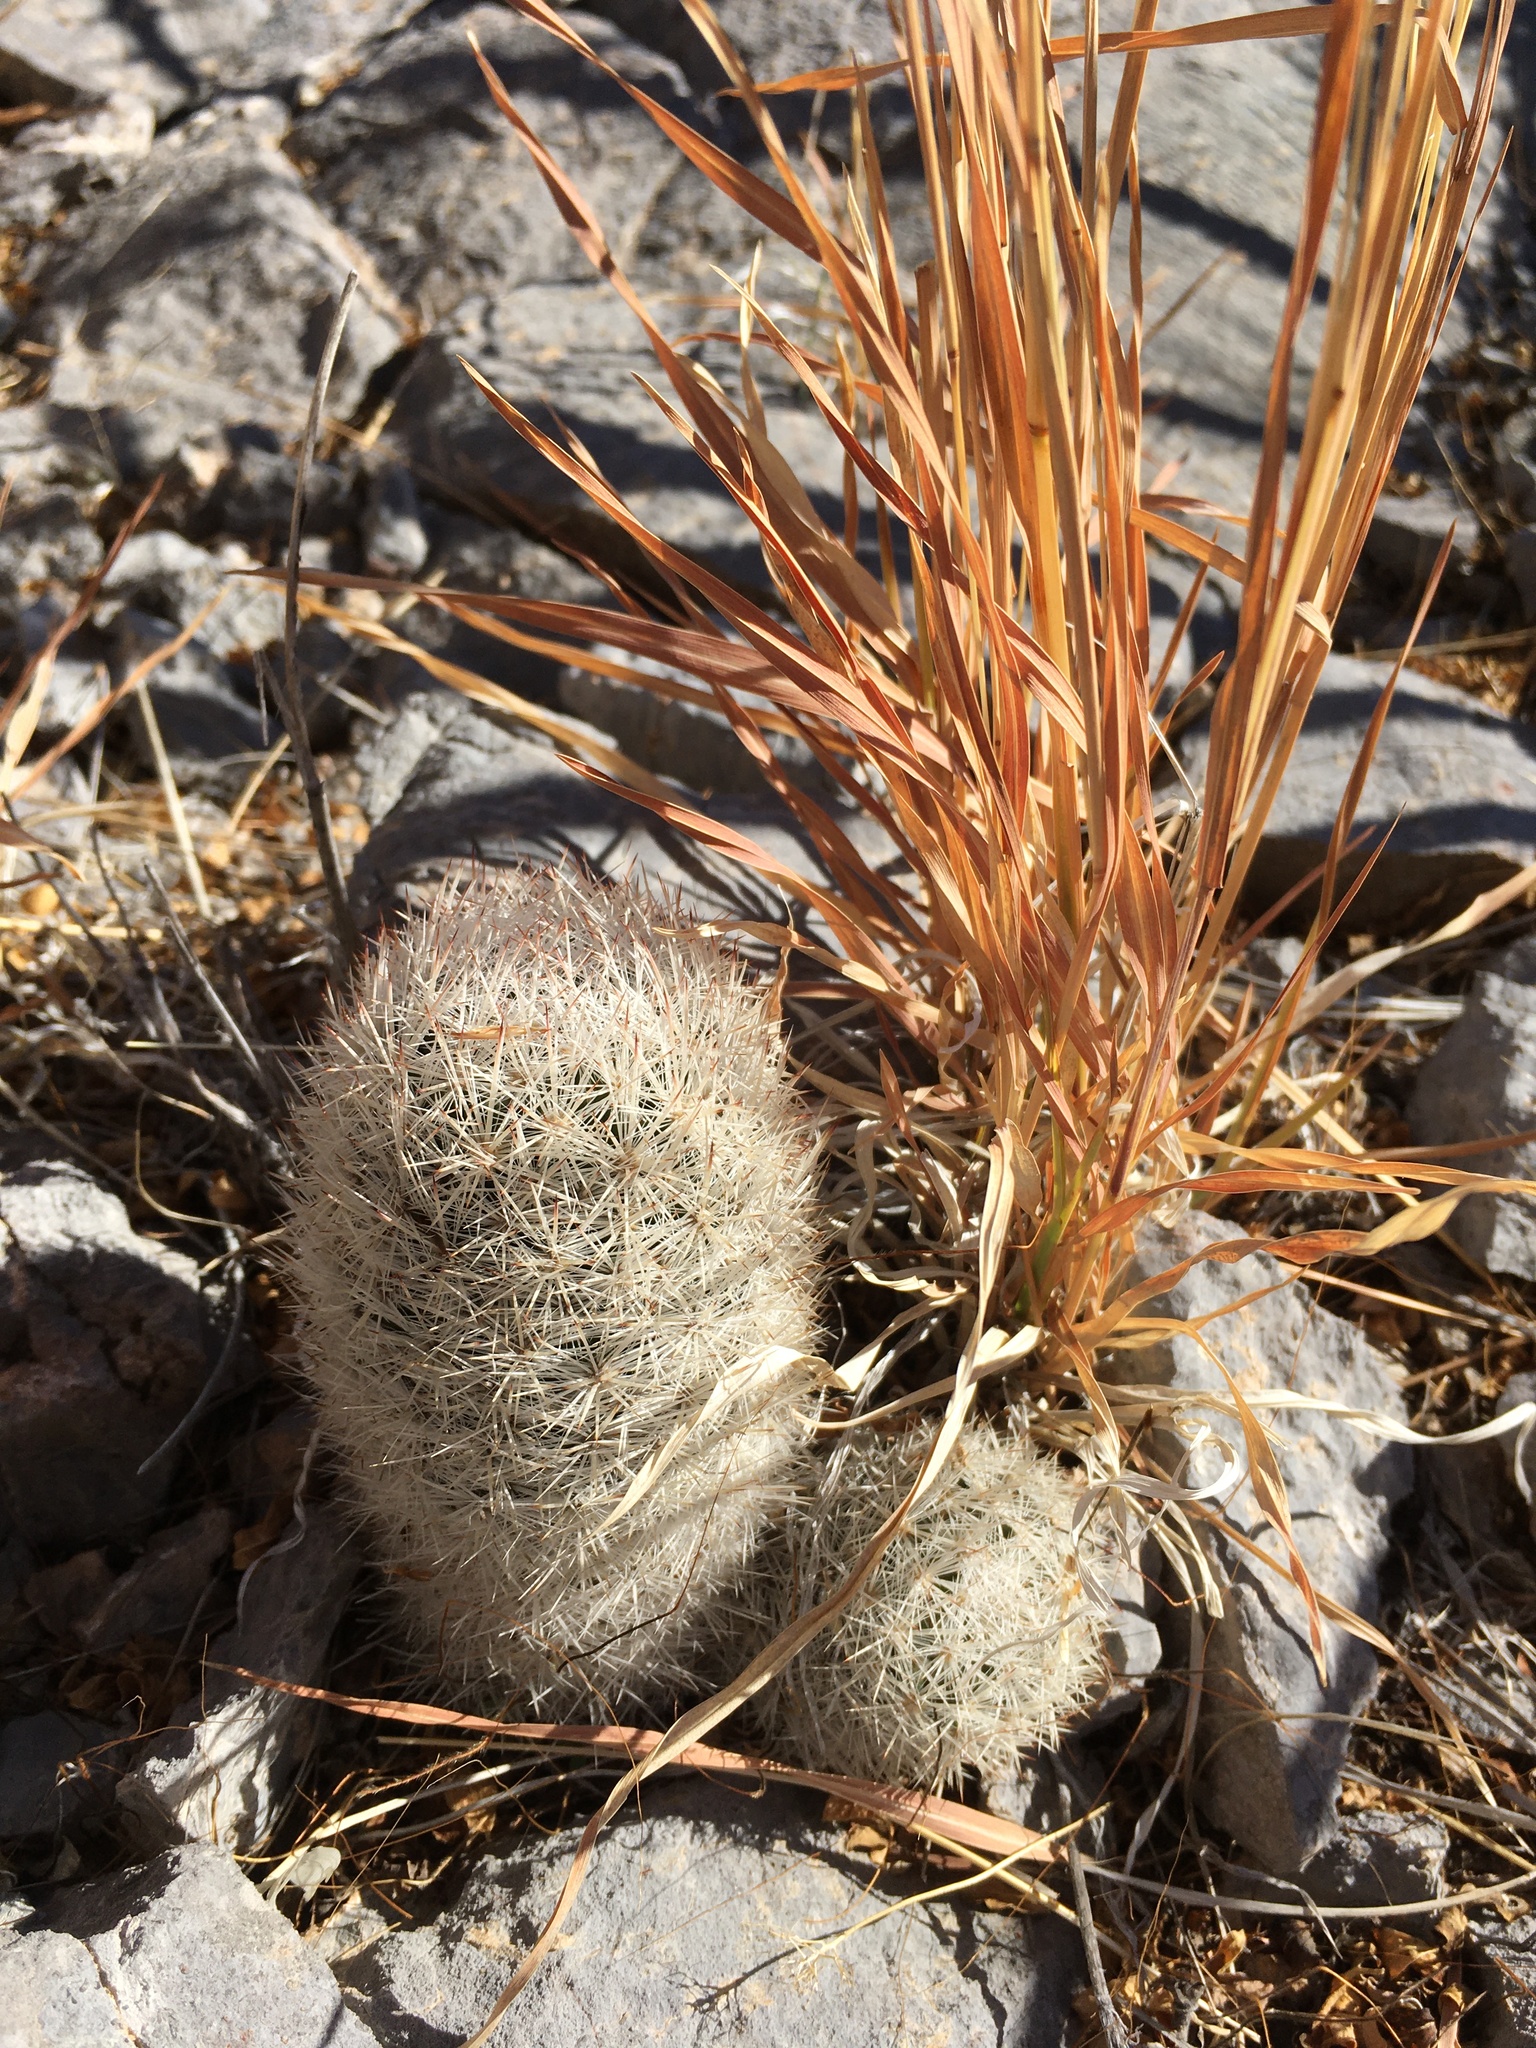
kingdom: Plantae
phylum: Tracheophyta
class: Magnoliopsida
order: Caryophyllales
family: Cactaceae
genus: Pelecyphora
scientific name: Pelecyphora sneedii
